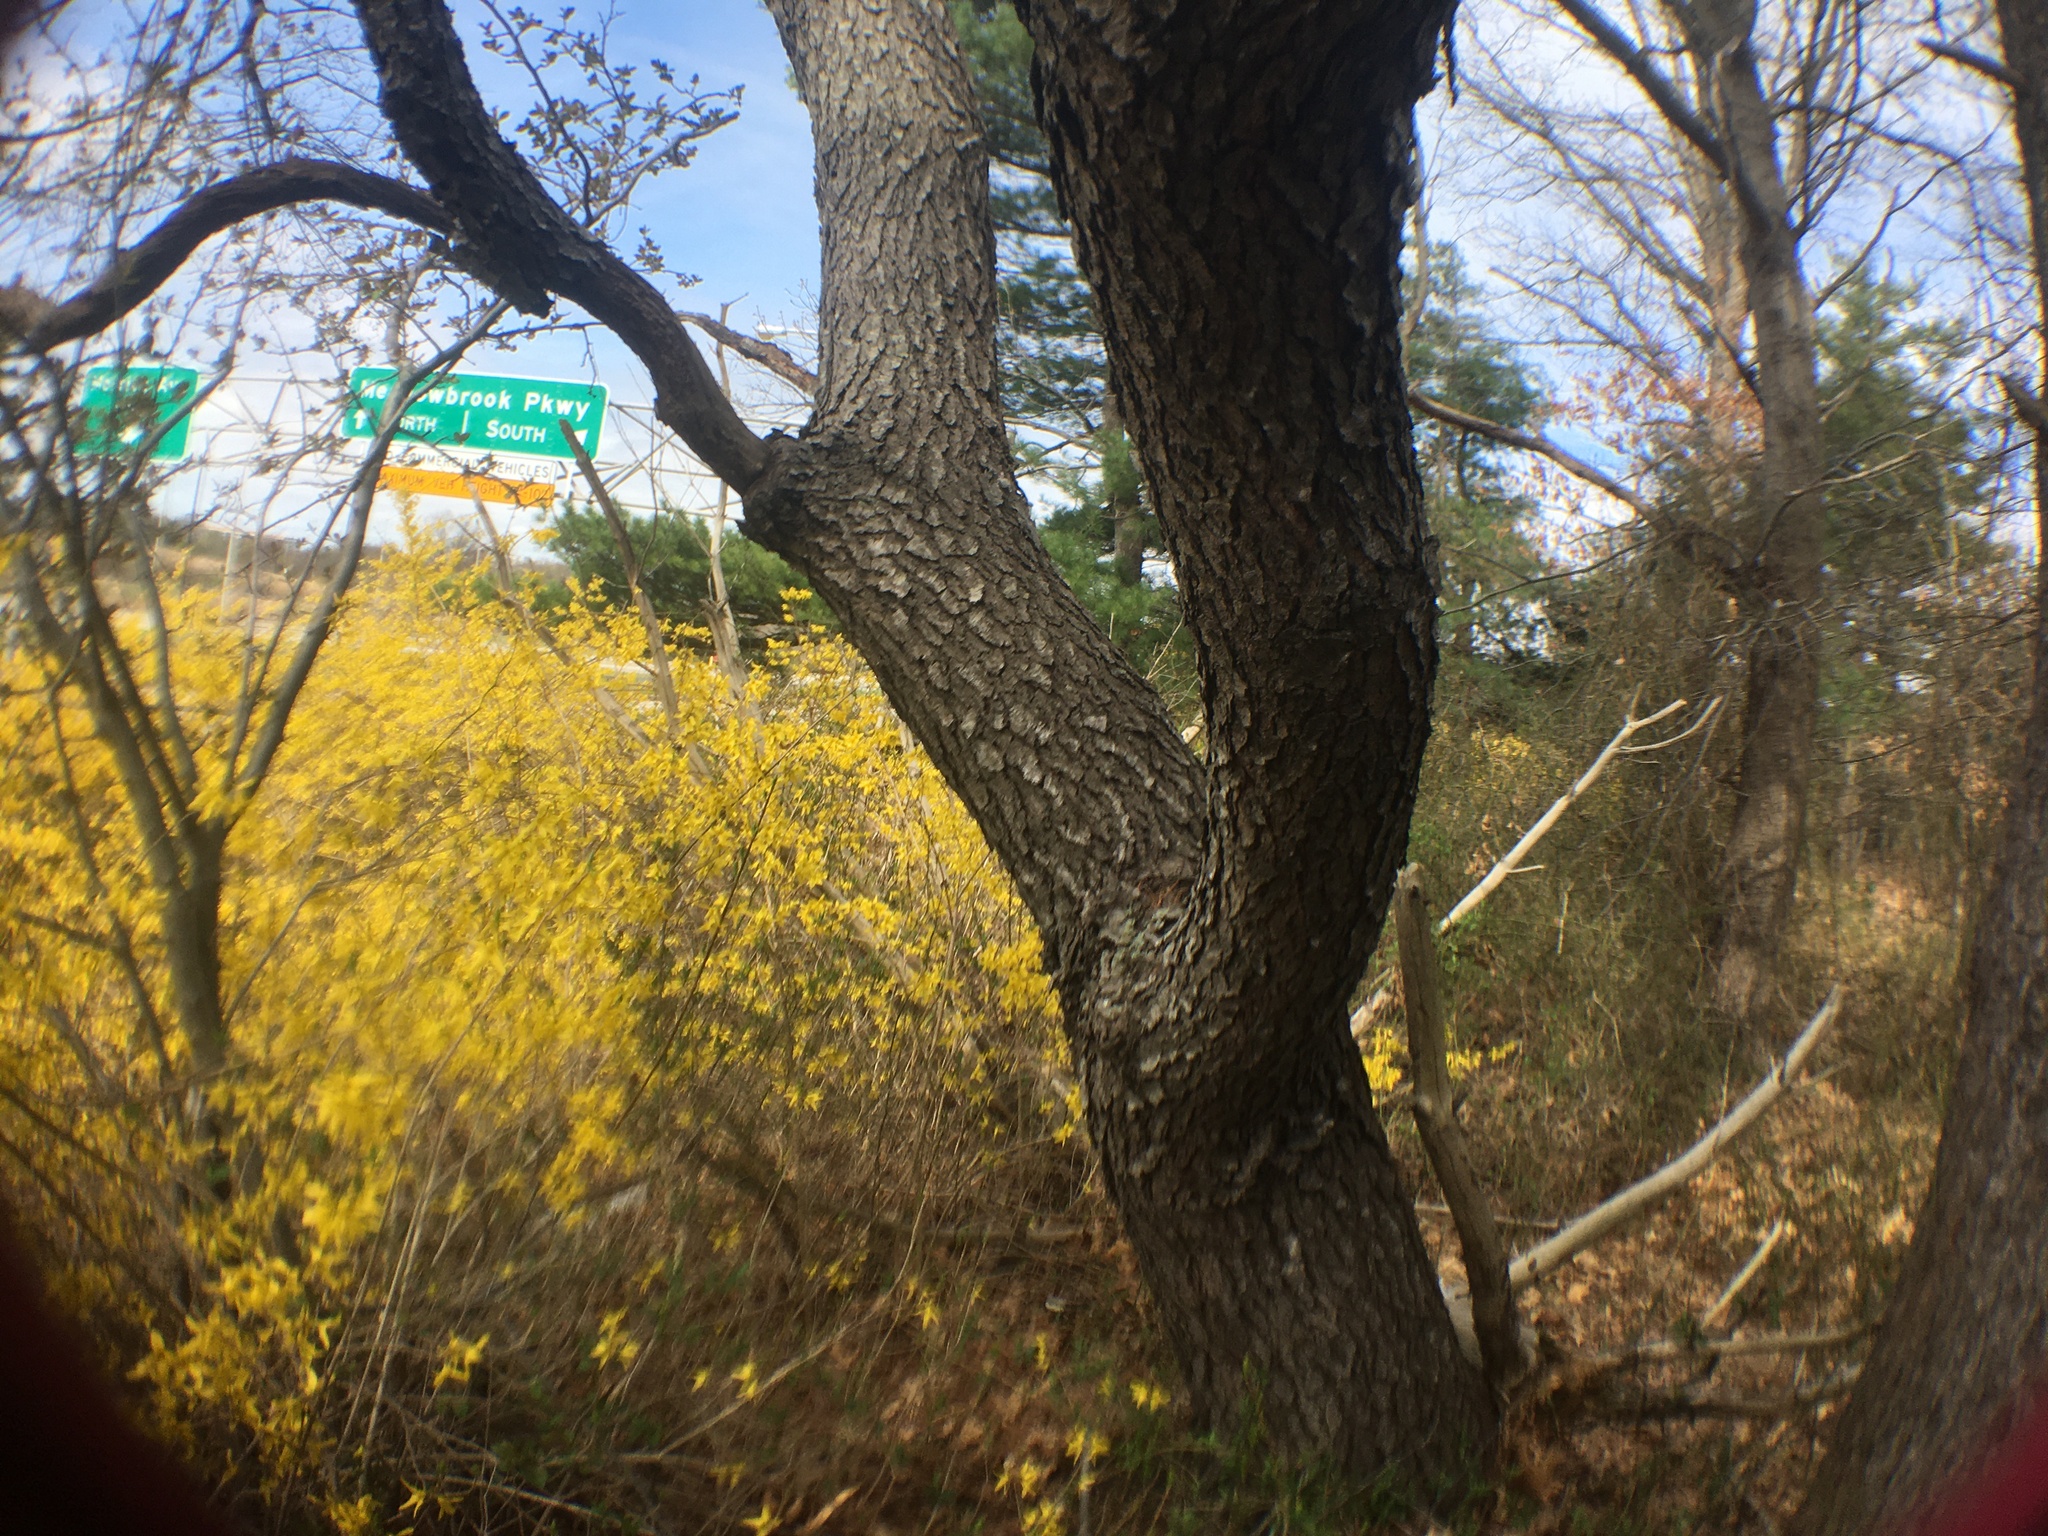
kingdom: Plantae
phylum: Tracheophyta
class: Magnoliopsida
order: Rosales
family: Rosaceae
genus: Prunus
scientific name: Prunus serotina
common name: Black cherry
